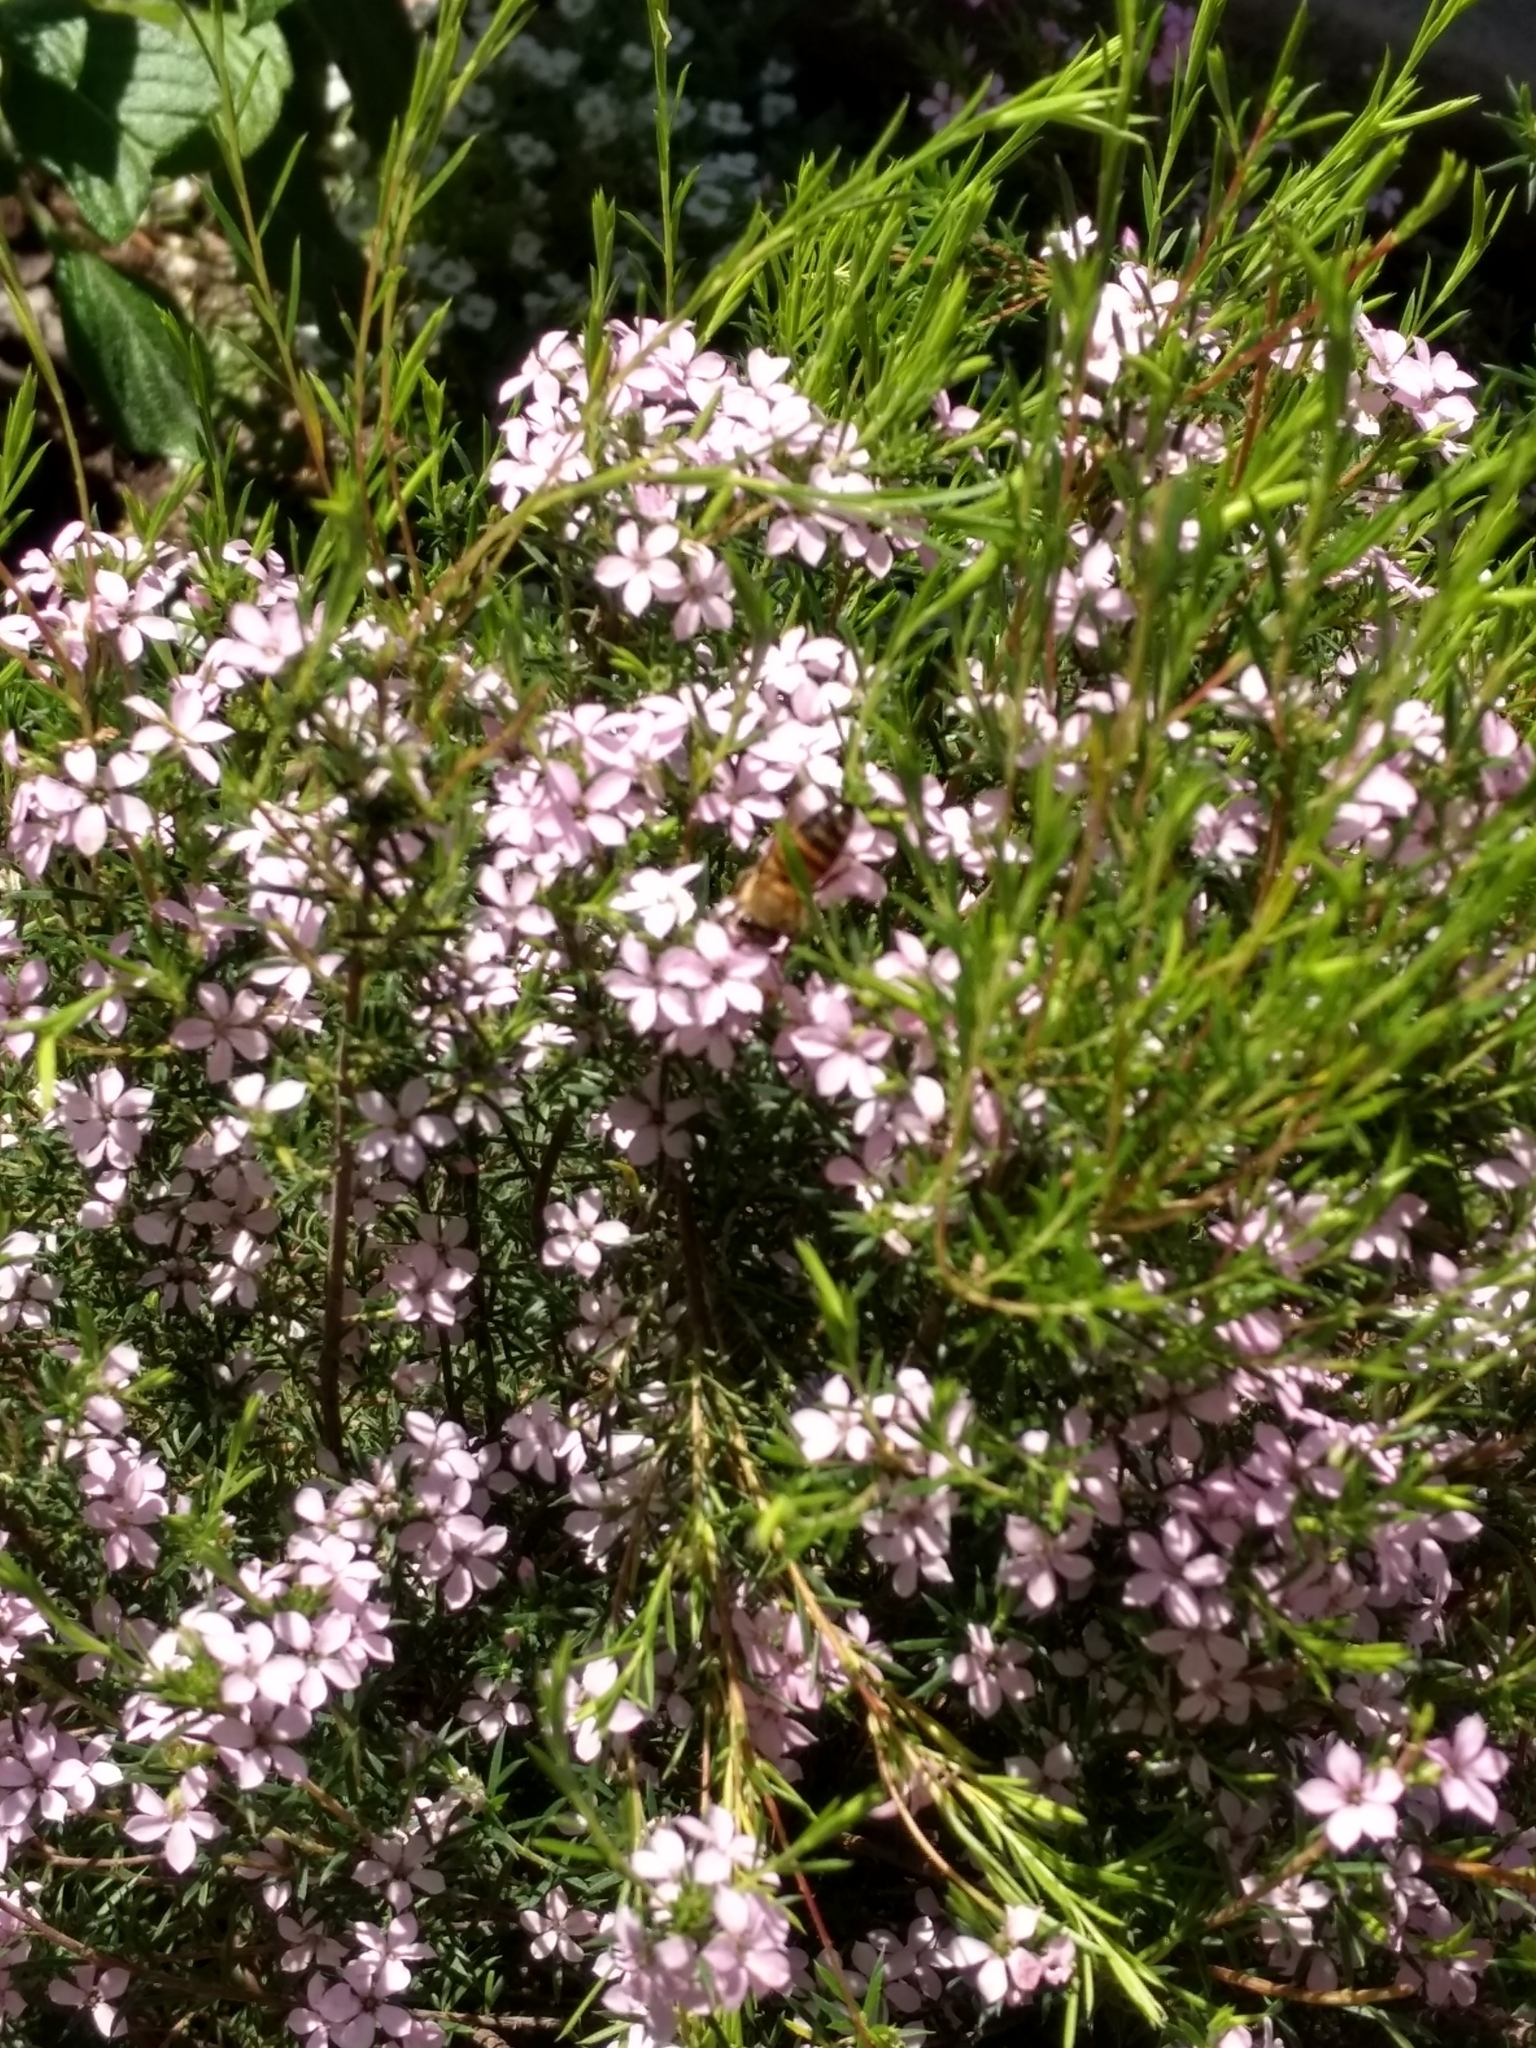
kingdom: Animalia
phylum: Arthropoda
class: Insecta
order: Hymenoptera
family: Apidae
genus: Apis
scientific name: Apis mellifera
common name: Honey bee
